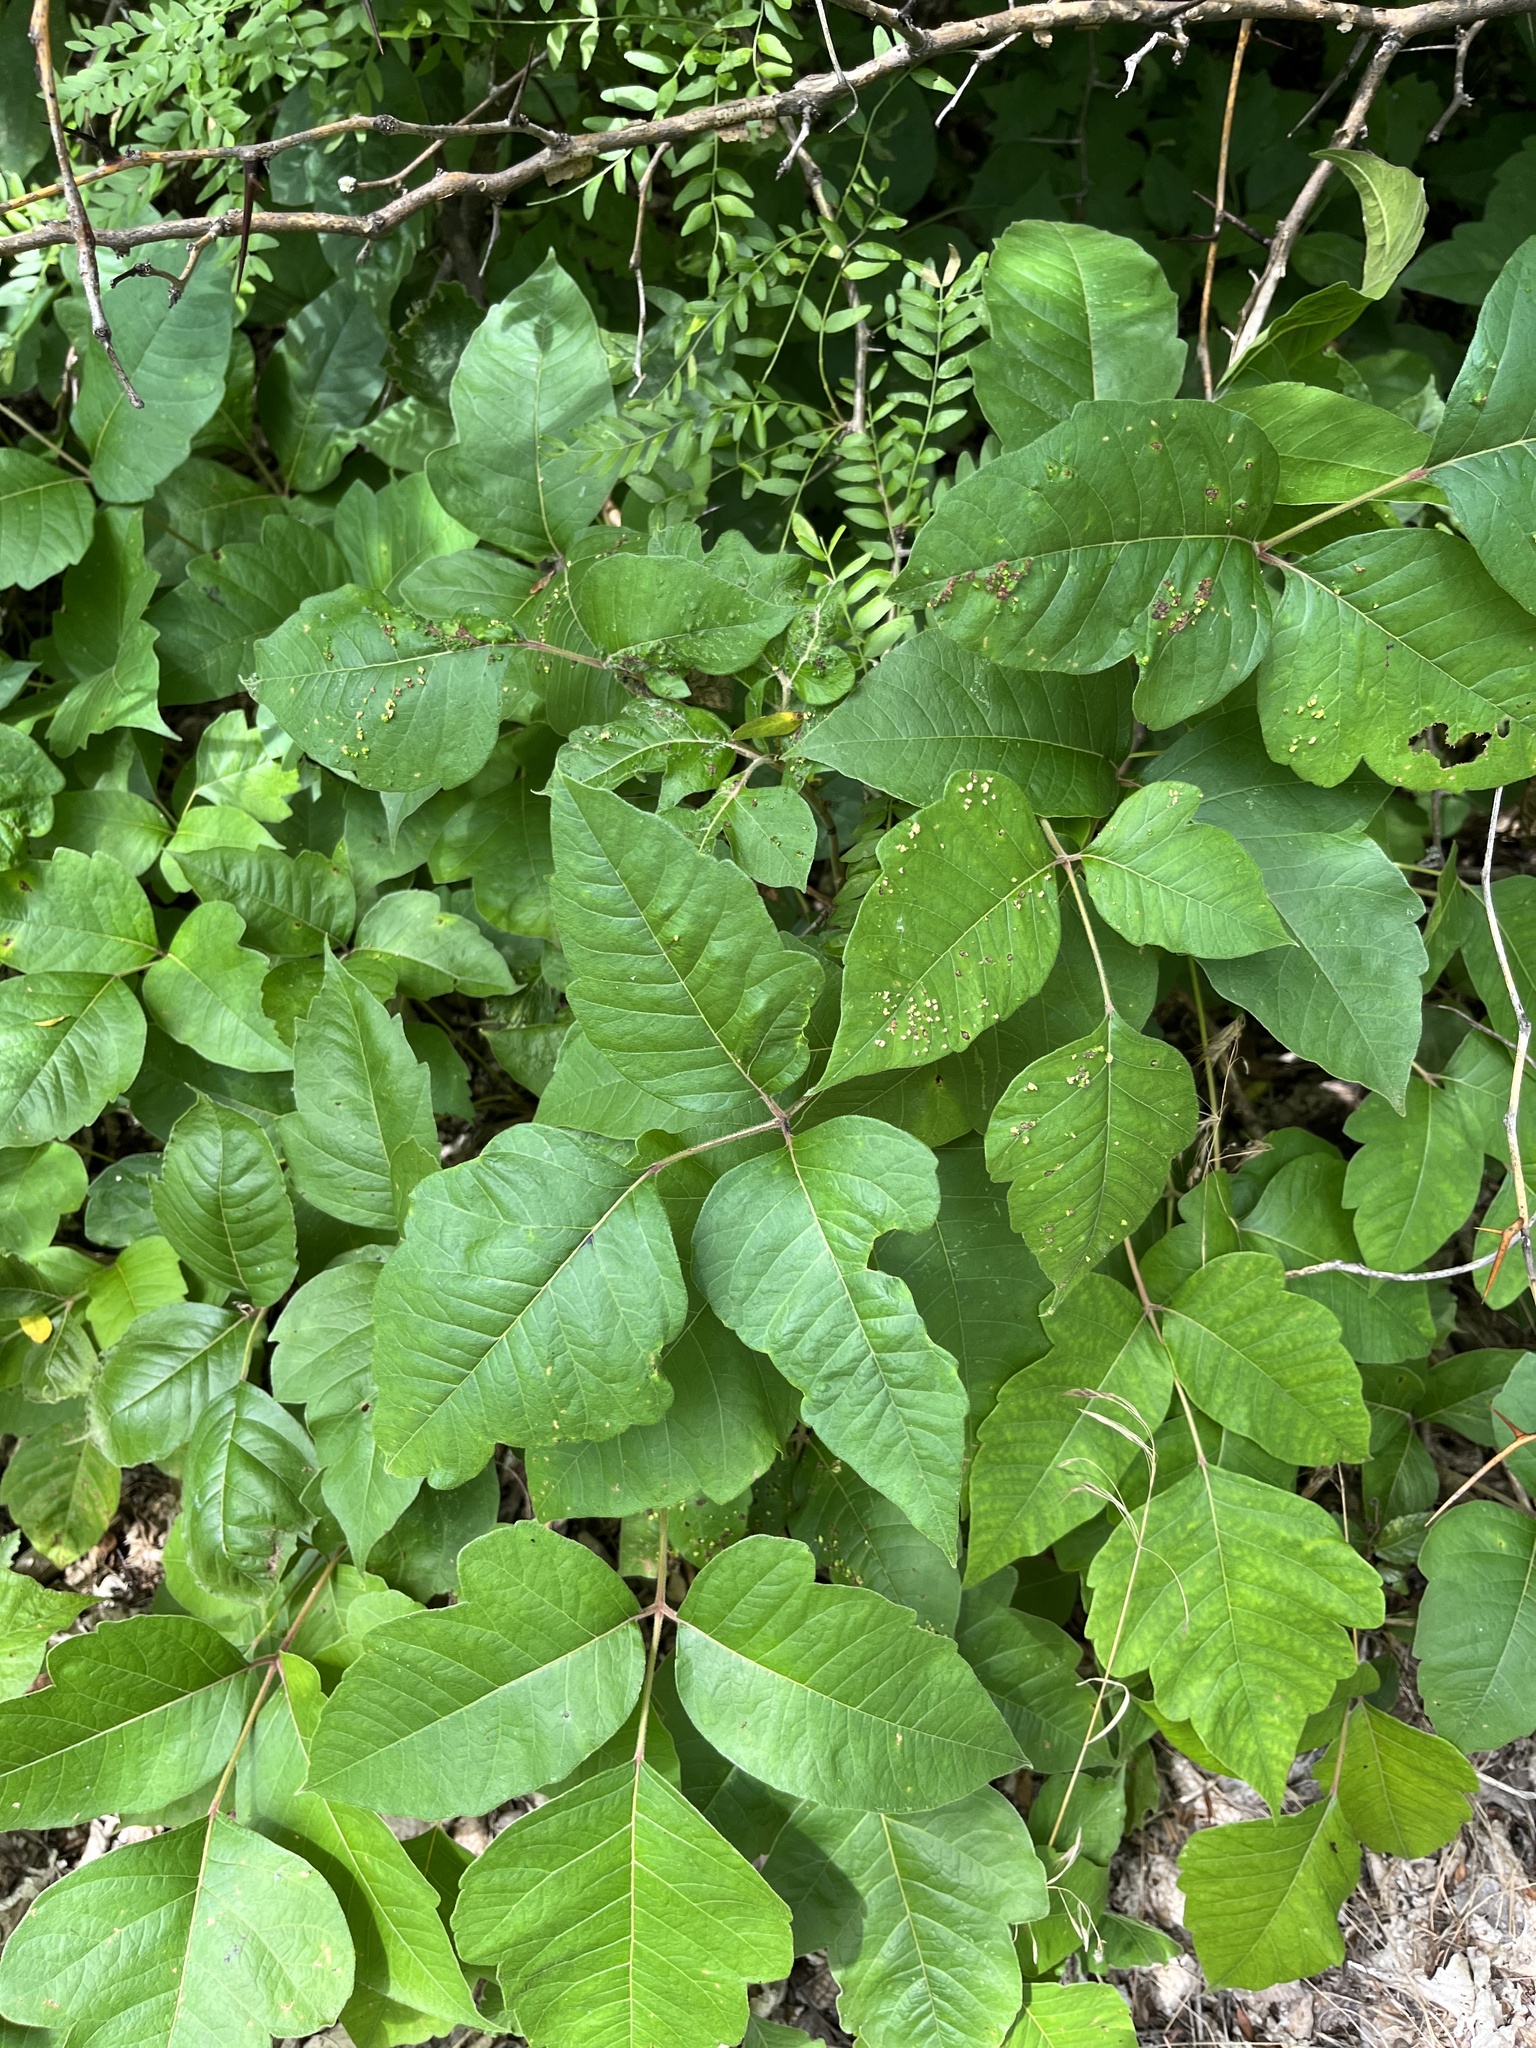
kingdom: Plantae
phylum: Tracheophyta
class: Magnoliopsida
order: Sapindales
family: Anacardiaceae
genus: Toxicodendron
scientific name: Toxicodendron radicans
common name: Poison ivy
